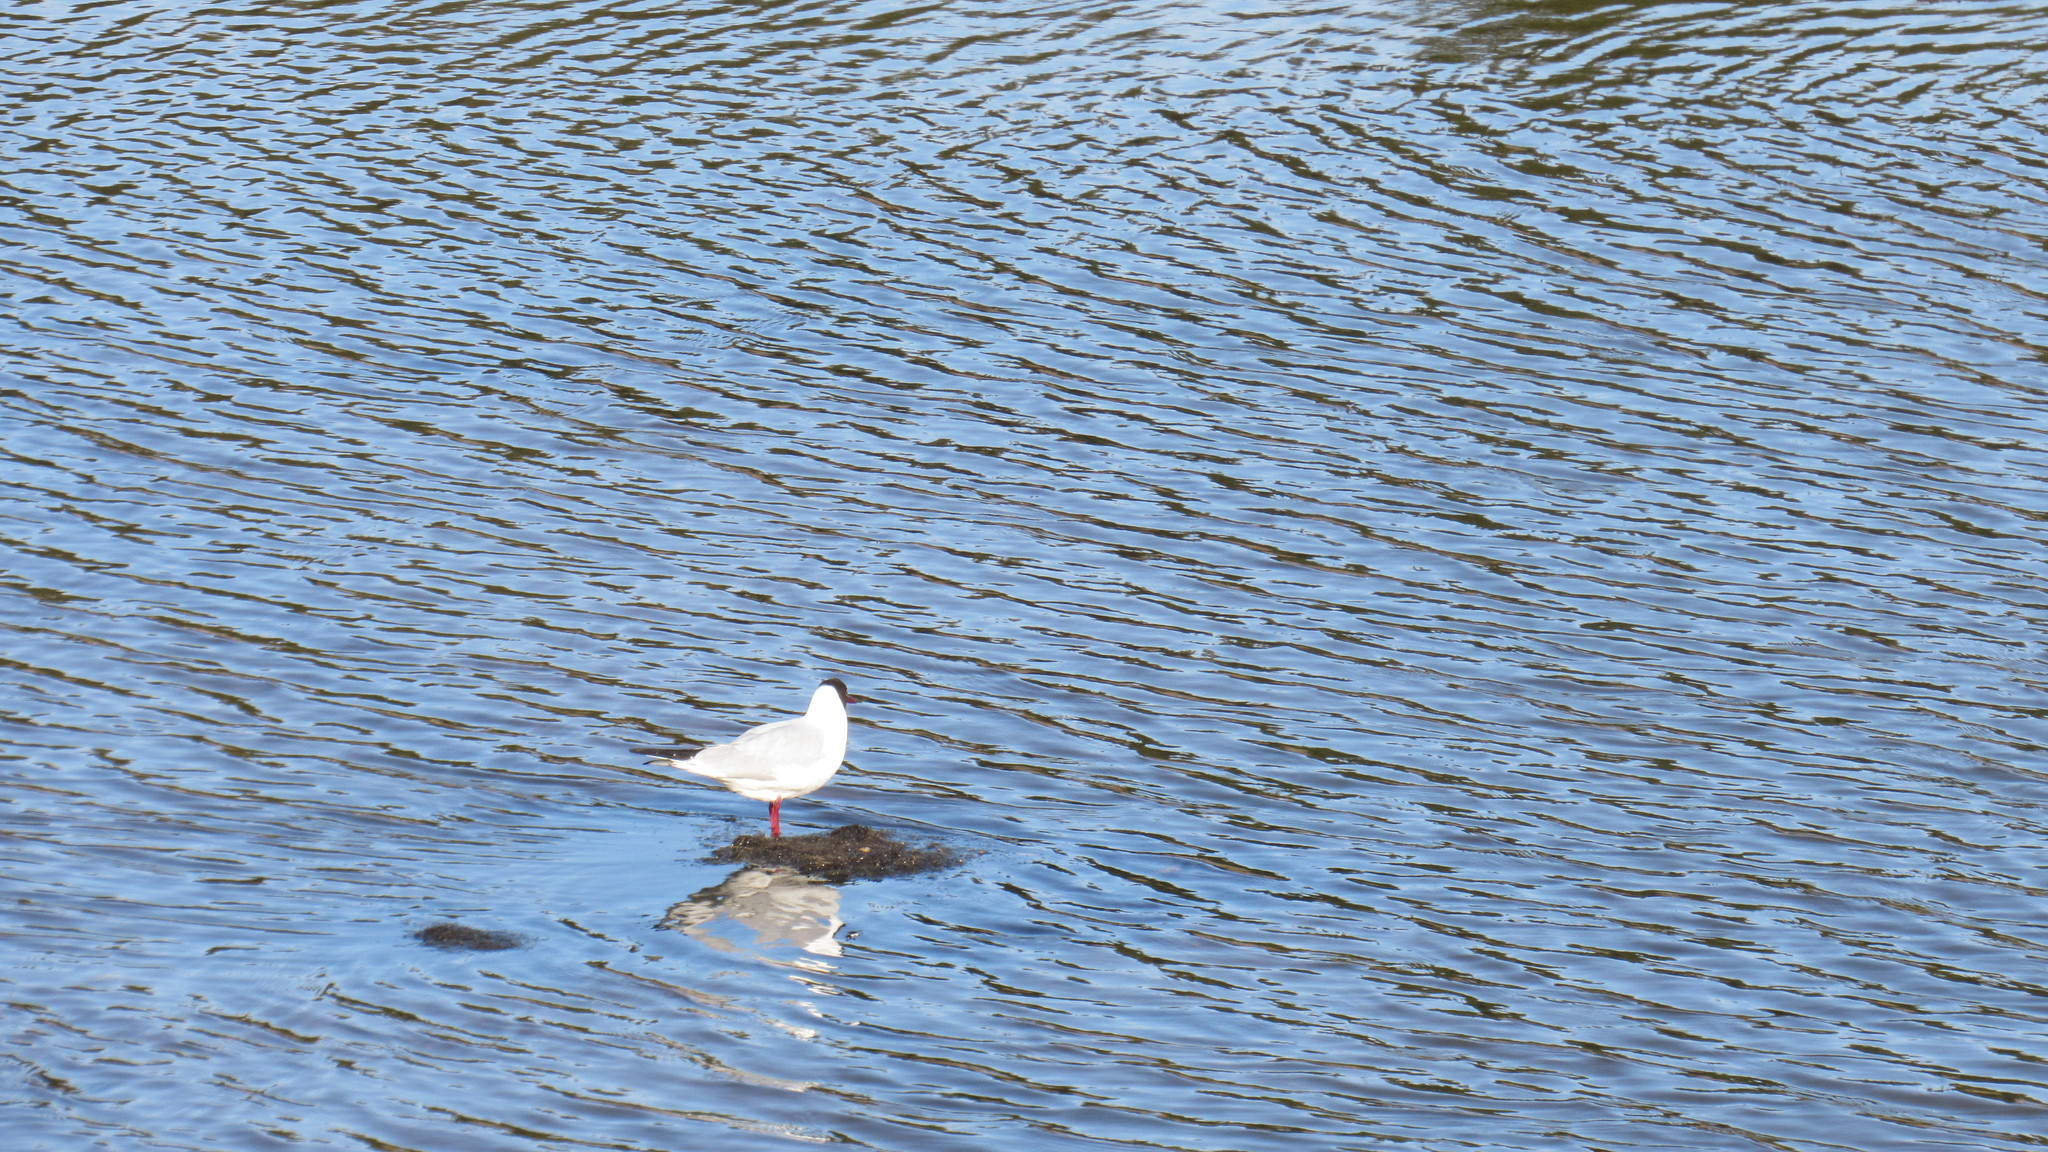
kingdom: Animalia
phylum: Chordata
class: Aves
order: Charadriiformes
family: Laridae
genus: Chroicocephalus
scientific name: Chroicocephalus ridibundus
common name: Black-headed gull
